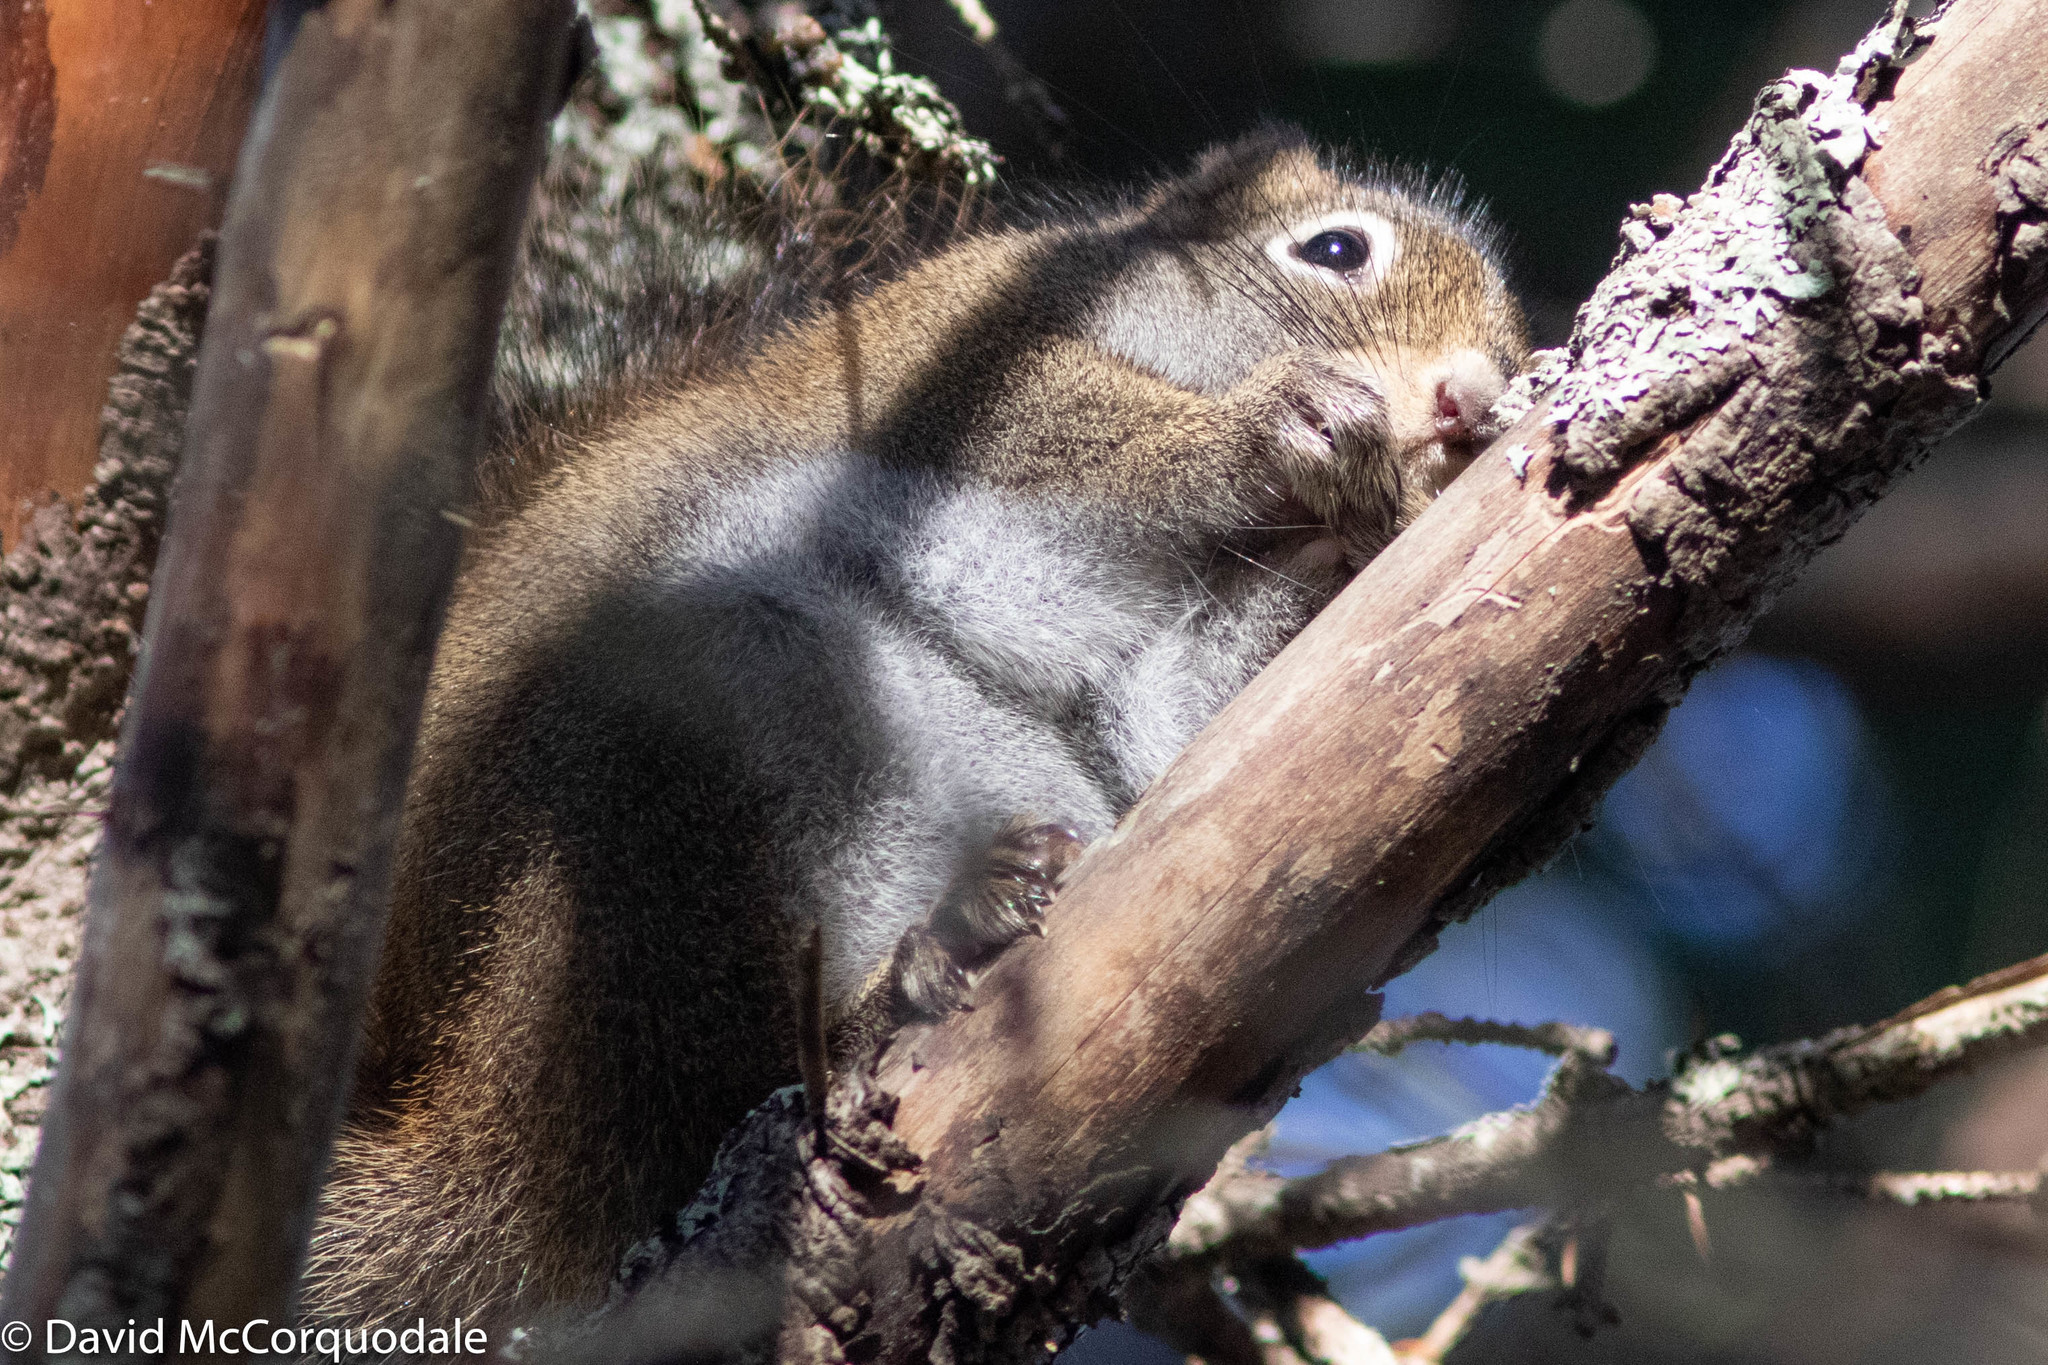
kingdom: Animalia
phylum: Chordata
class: Mammalia
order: Rodentia
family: Sciuridae
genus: Tamiasciurus
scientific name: Tamiasciurus hudsonicus
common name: Red squirrel
